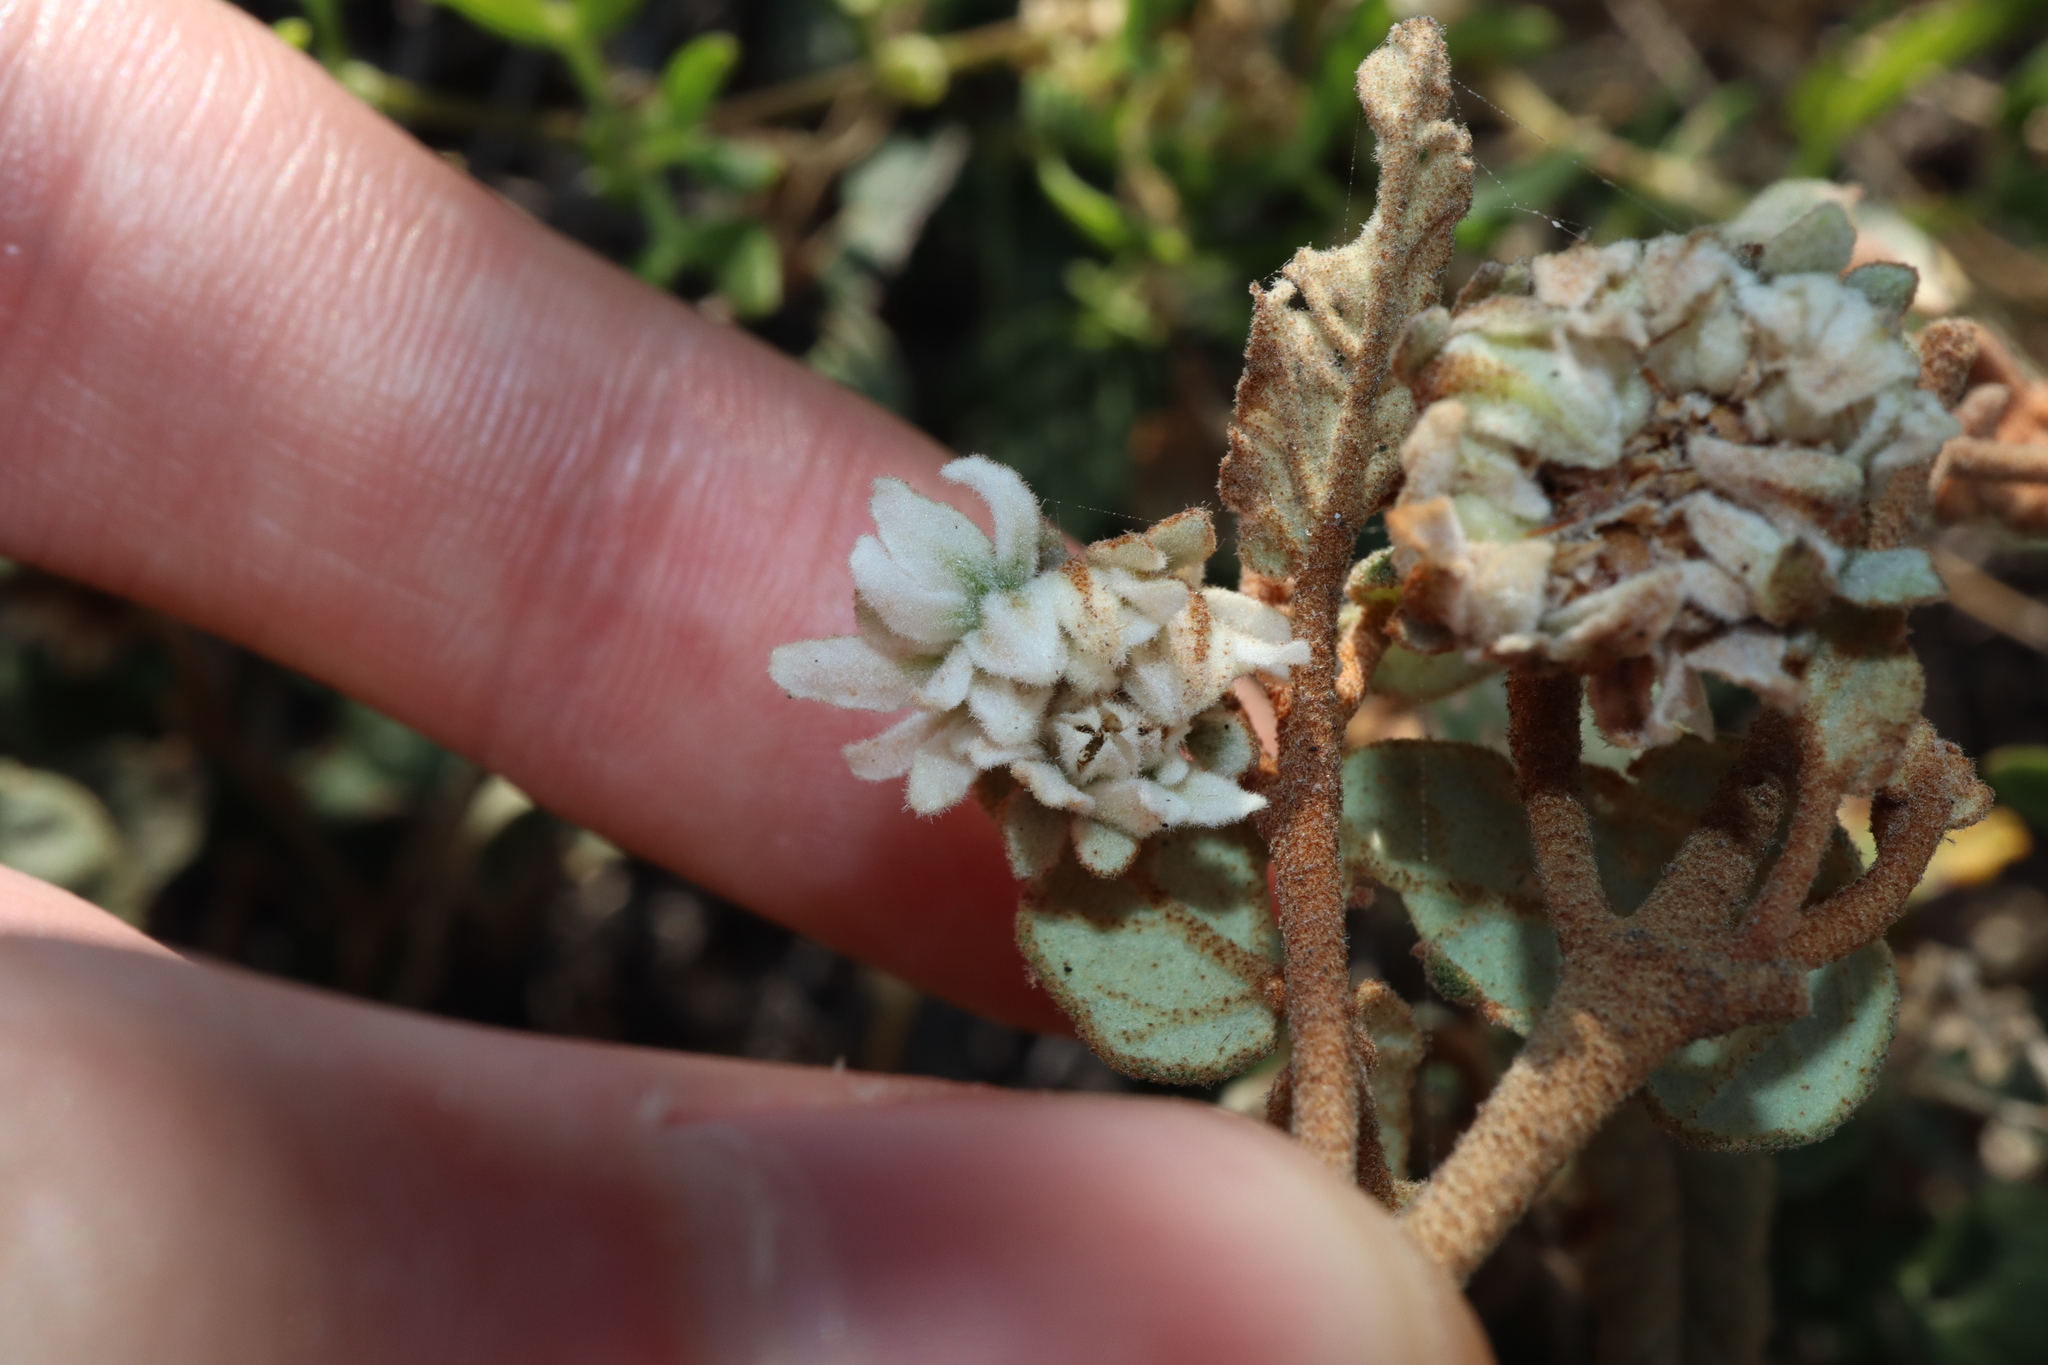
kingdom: Plantae
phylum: Tracheophyta
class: Magnoliopsida
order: Malvales
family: Malvaceae
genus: Lasiopetalum
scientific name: Lasiopetalum discolor
